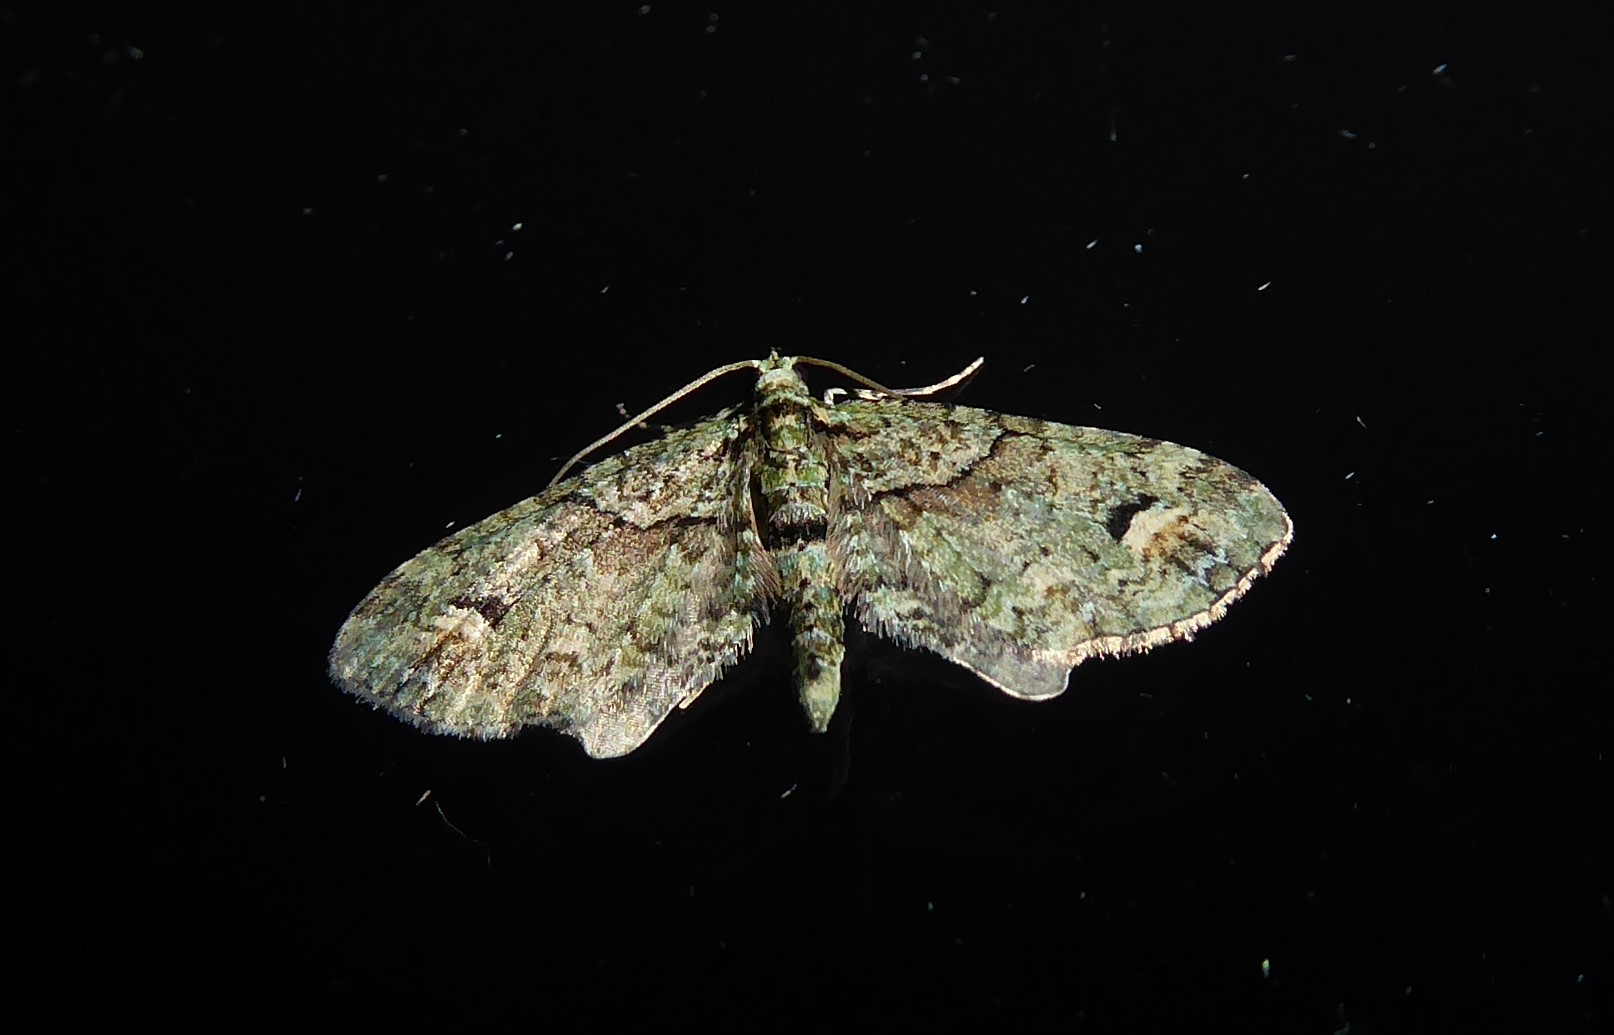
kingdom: Animalia
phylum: Arthropoda
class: Insecta
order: Lepidoptera
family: Geometridae
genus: Idaea
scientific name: Idaea mutanda
